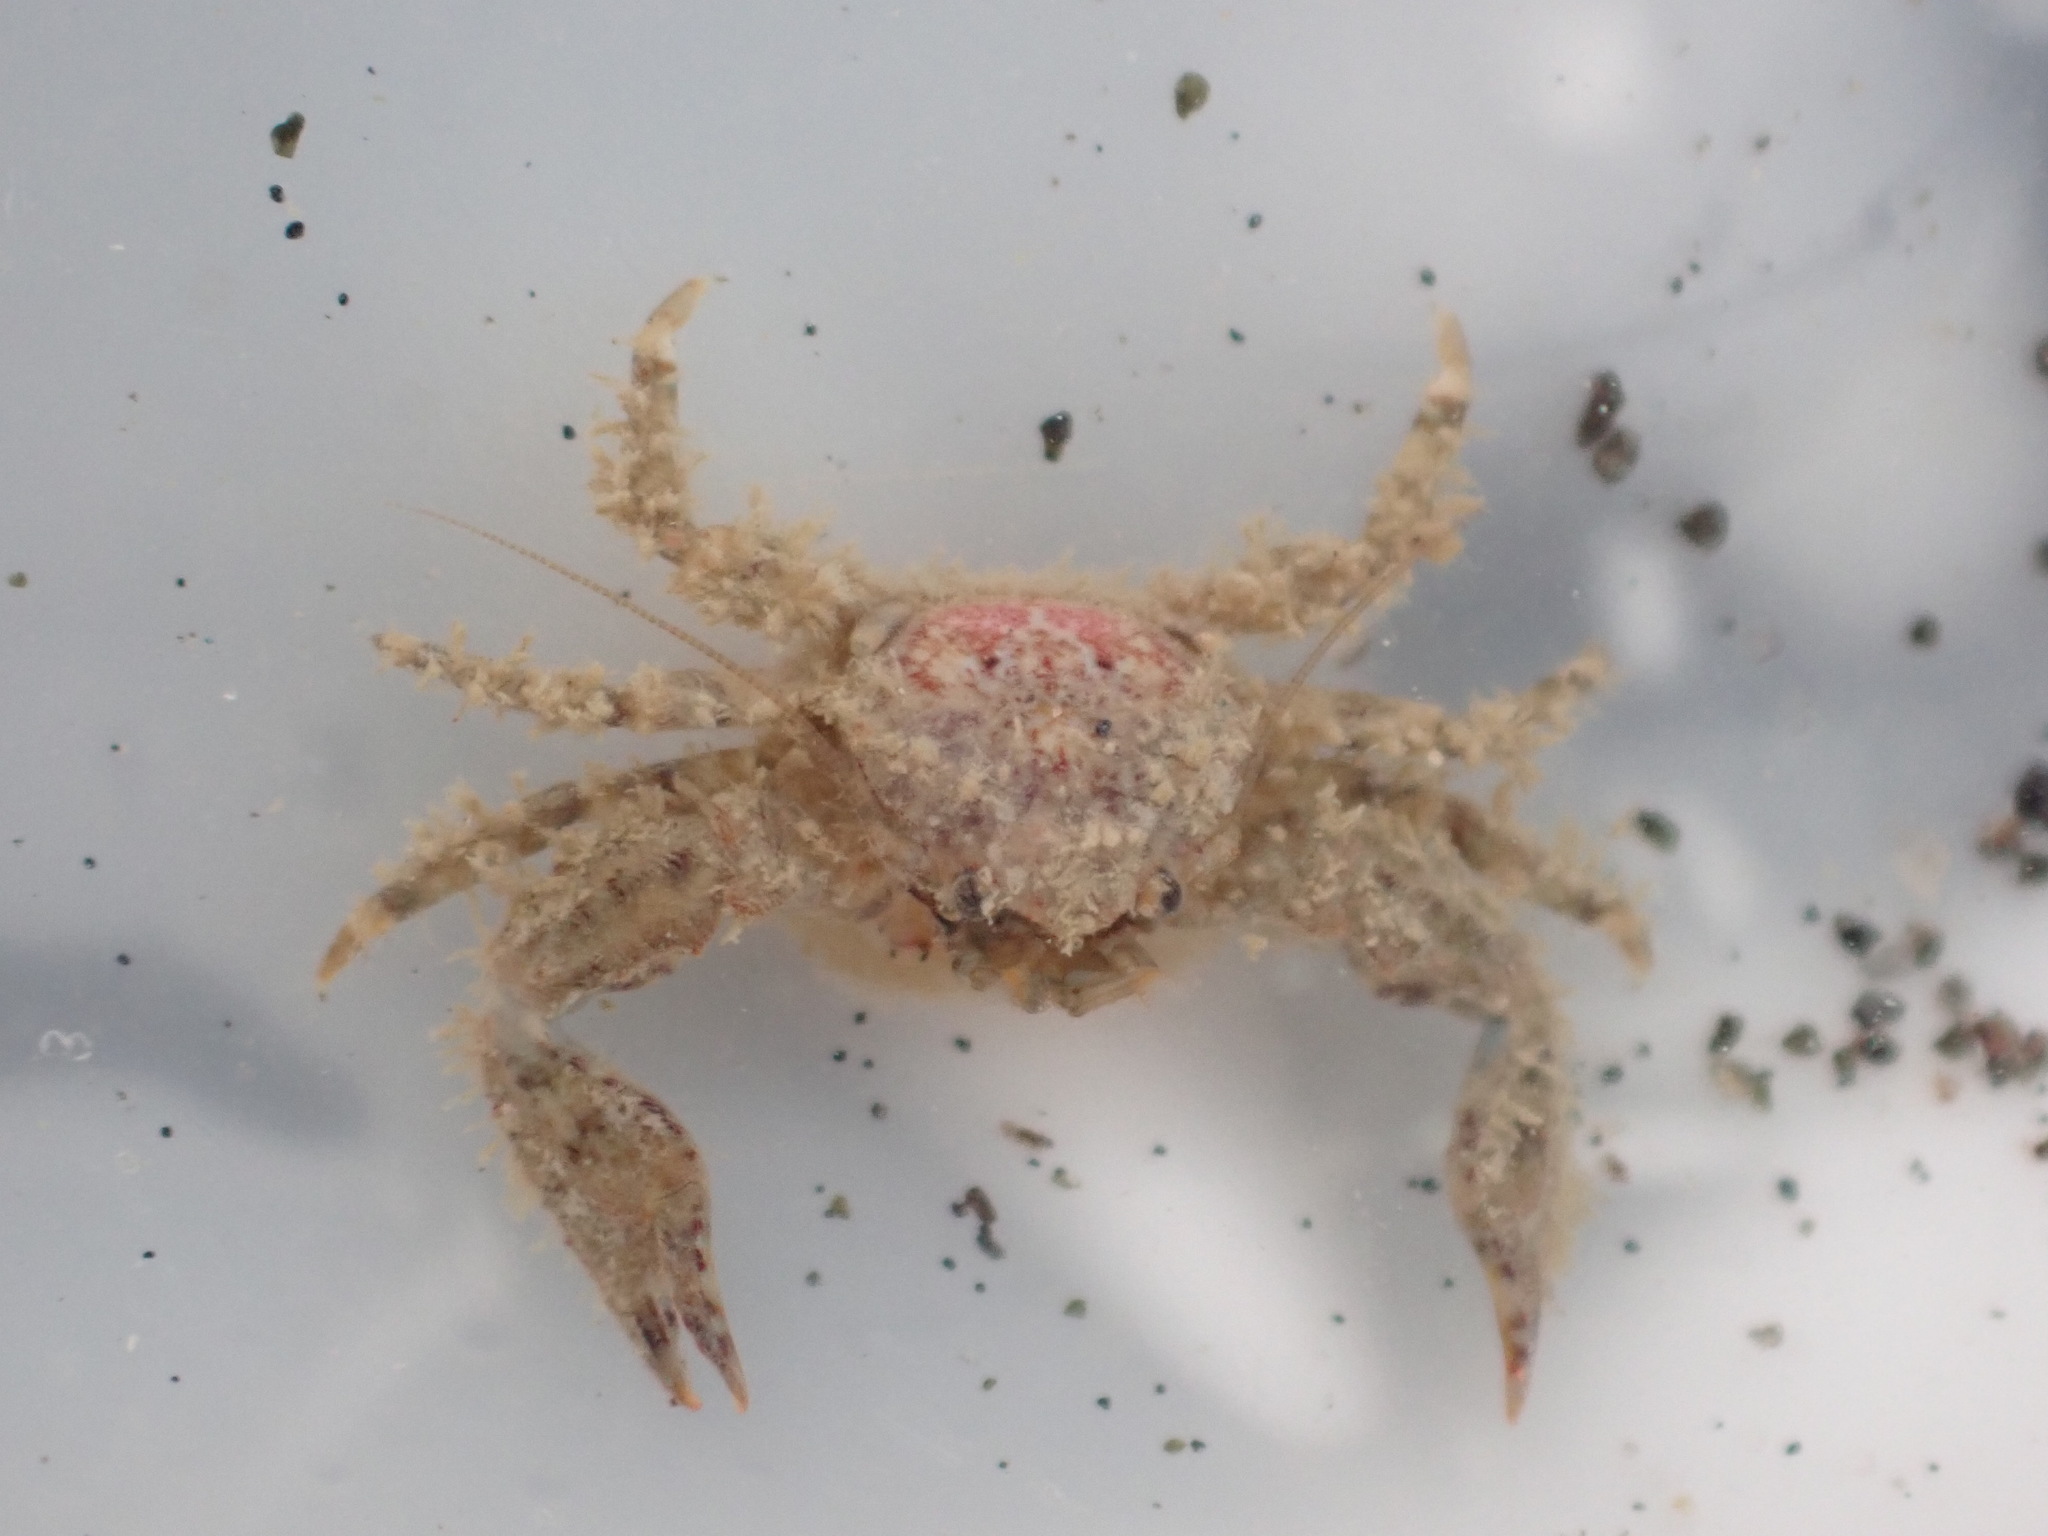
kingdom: Animalia
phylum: Arthropoda
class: Malacostraca
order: Decapoda
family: Porcellanidae
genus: Petrolisthes
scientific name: Petrolisthes novaezelandiae
